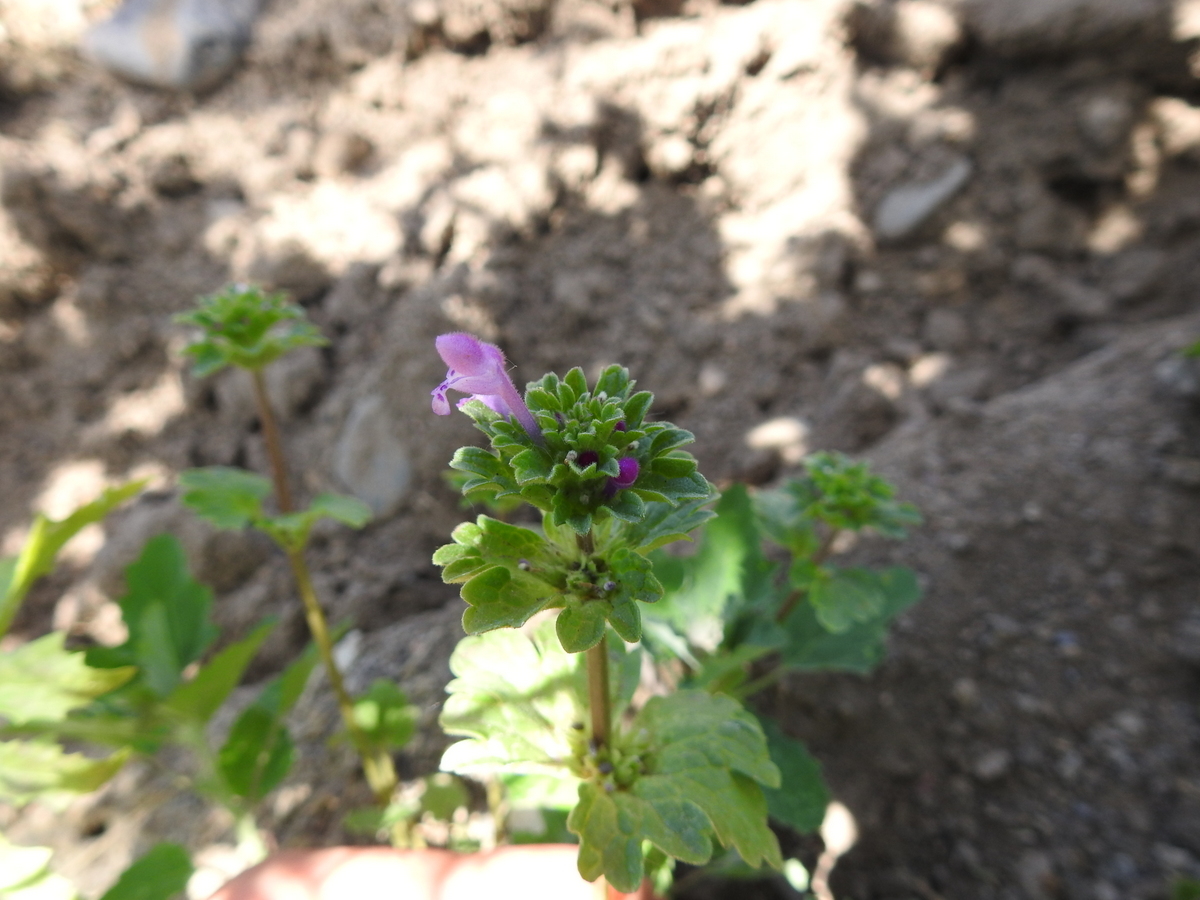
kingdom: Plantae
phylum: Tracheophyta
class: Magnoliopsida
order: Lamiales
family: Lamiaceae
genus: Lamium
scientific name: Lamium amplexicaule
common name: Henbit dead-nettle
